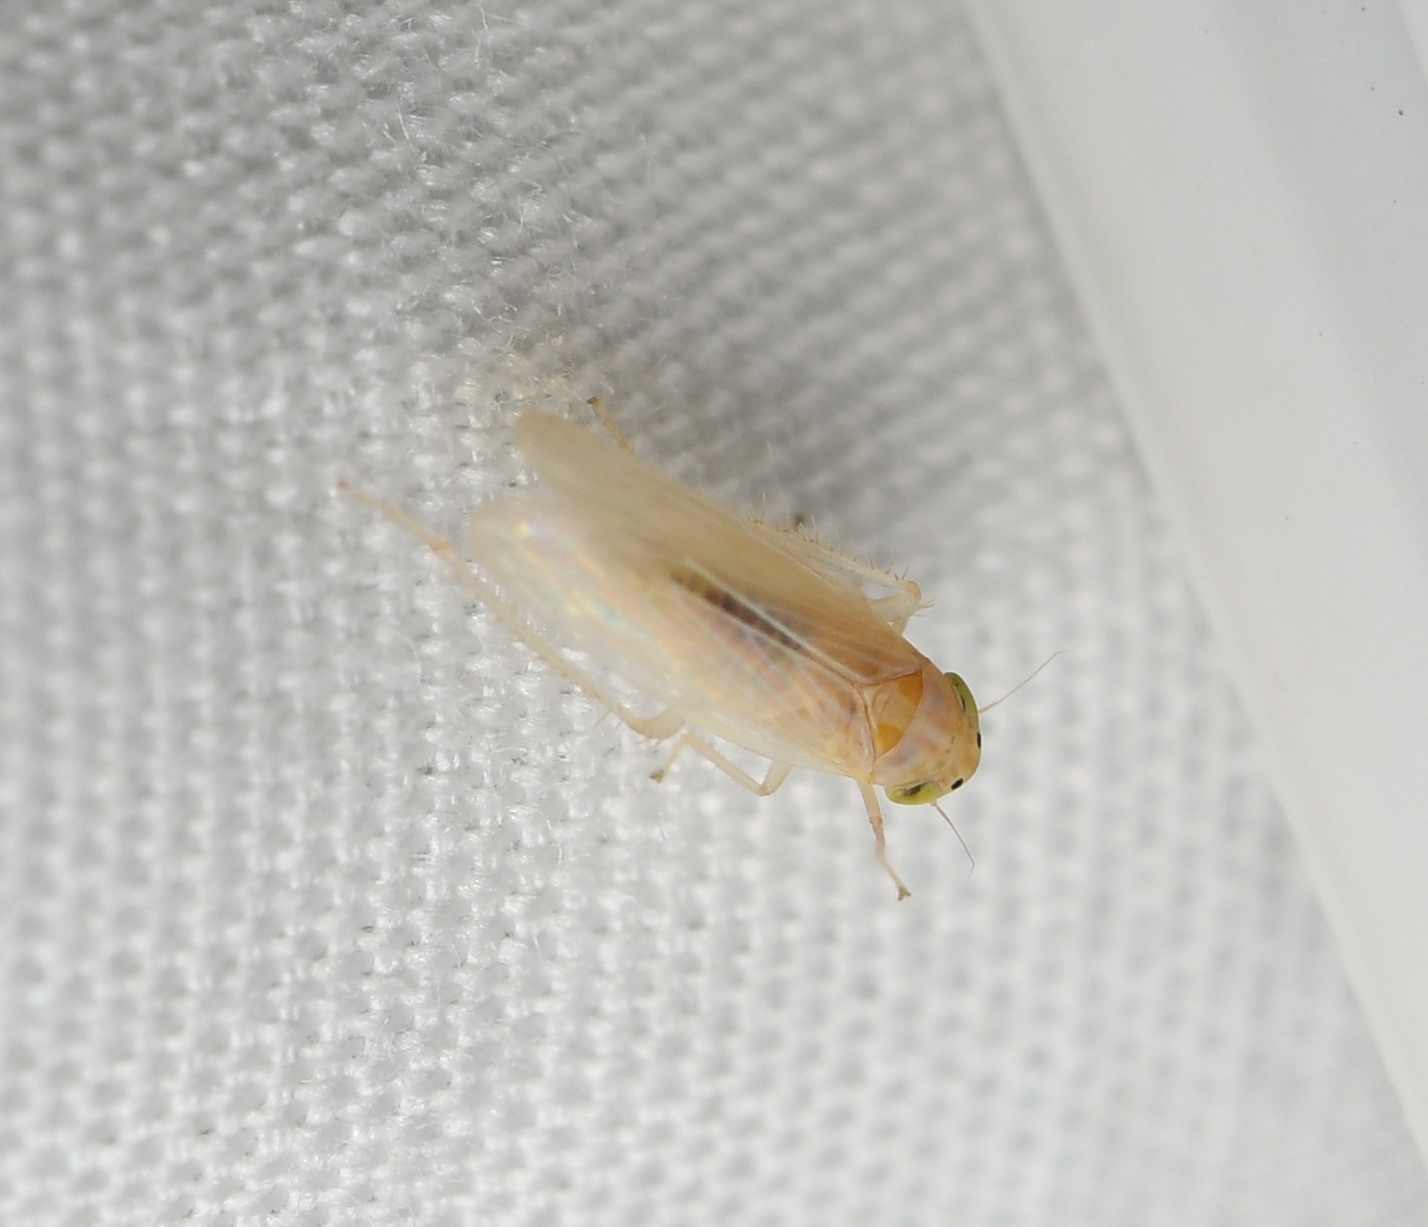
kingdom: Animalia
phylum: Arthropoda
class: Insecta
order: Hemiptera
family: Cicadellidae
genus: Dalbulus
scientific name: Dalbulus maidis
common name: Corn leafhopper
